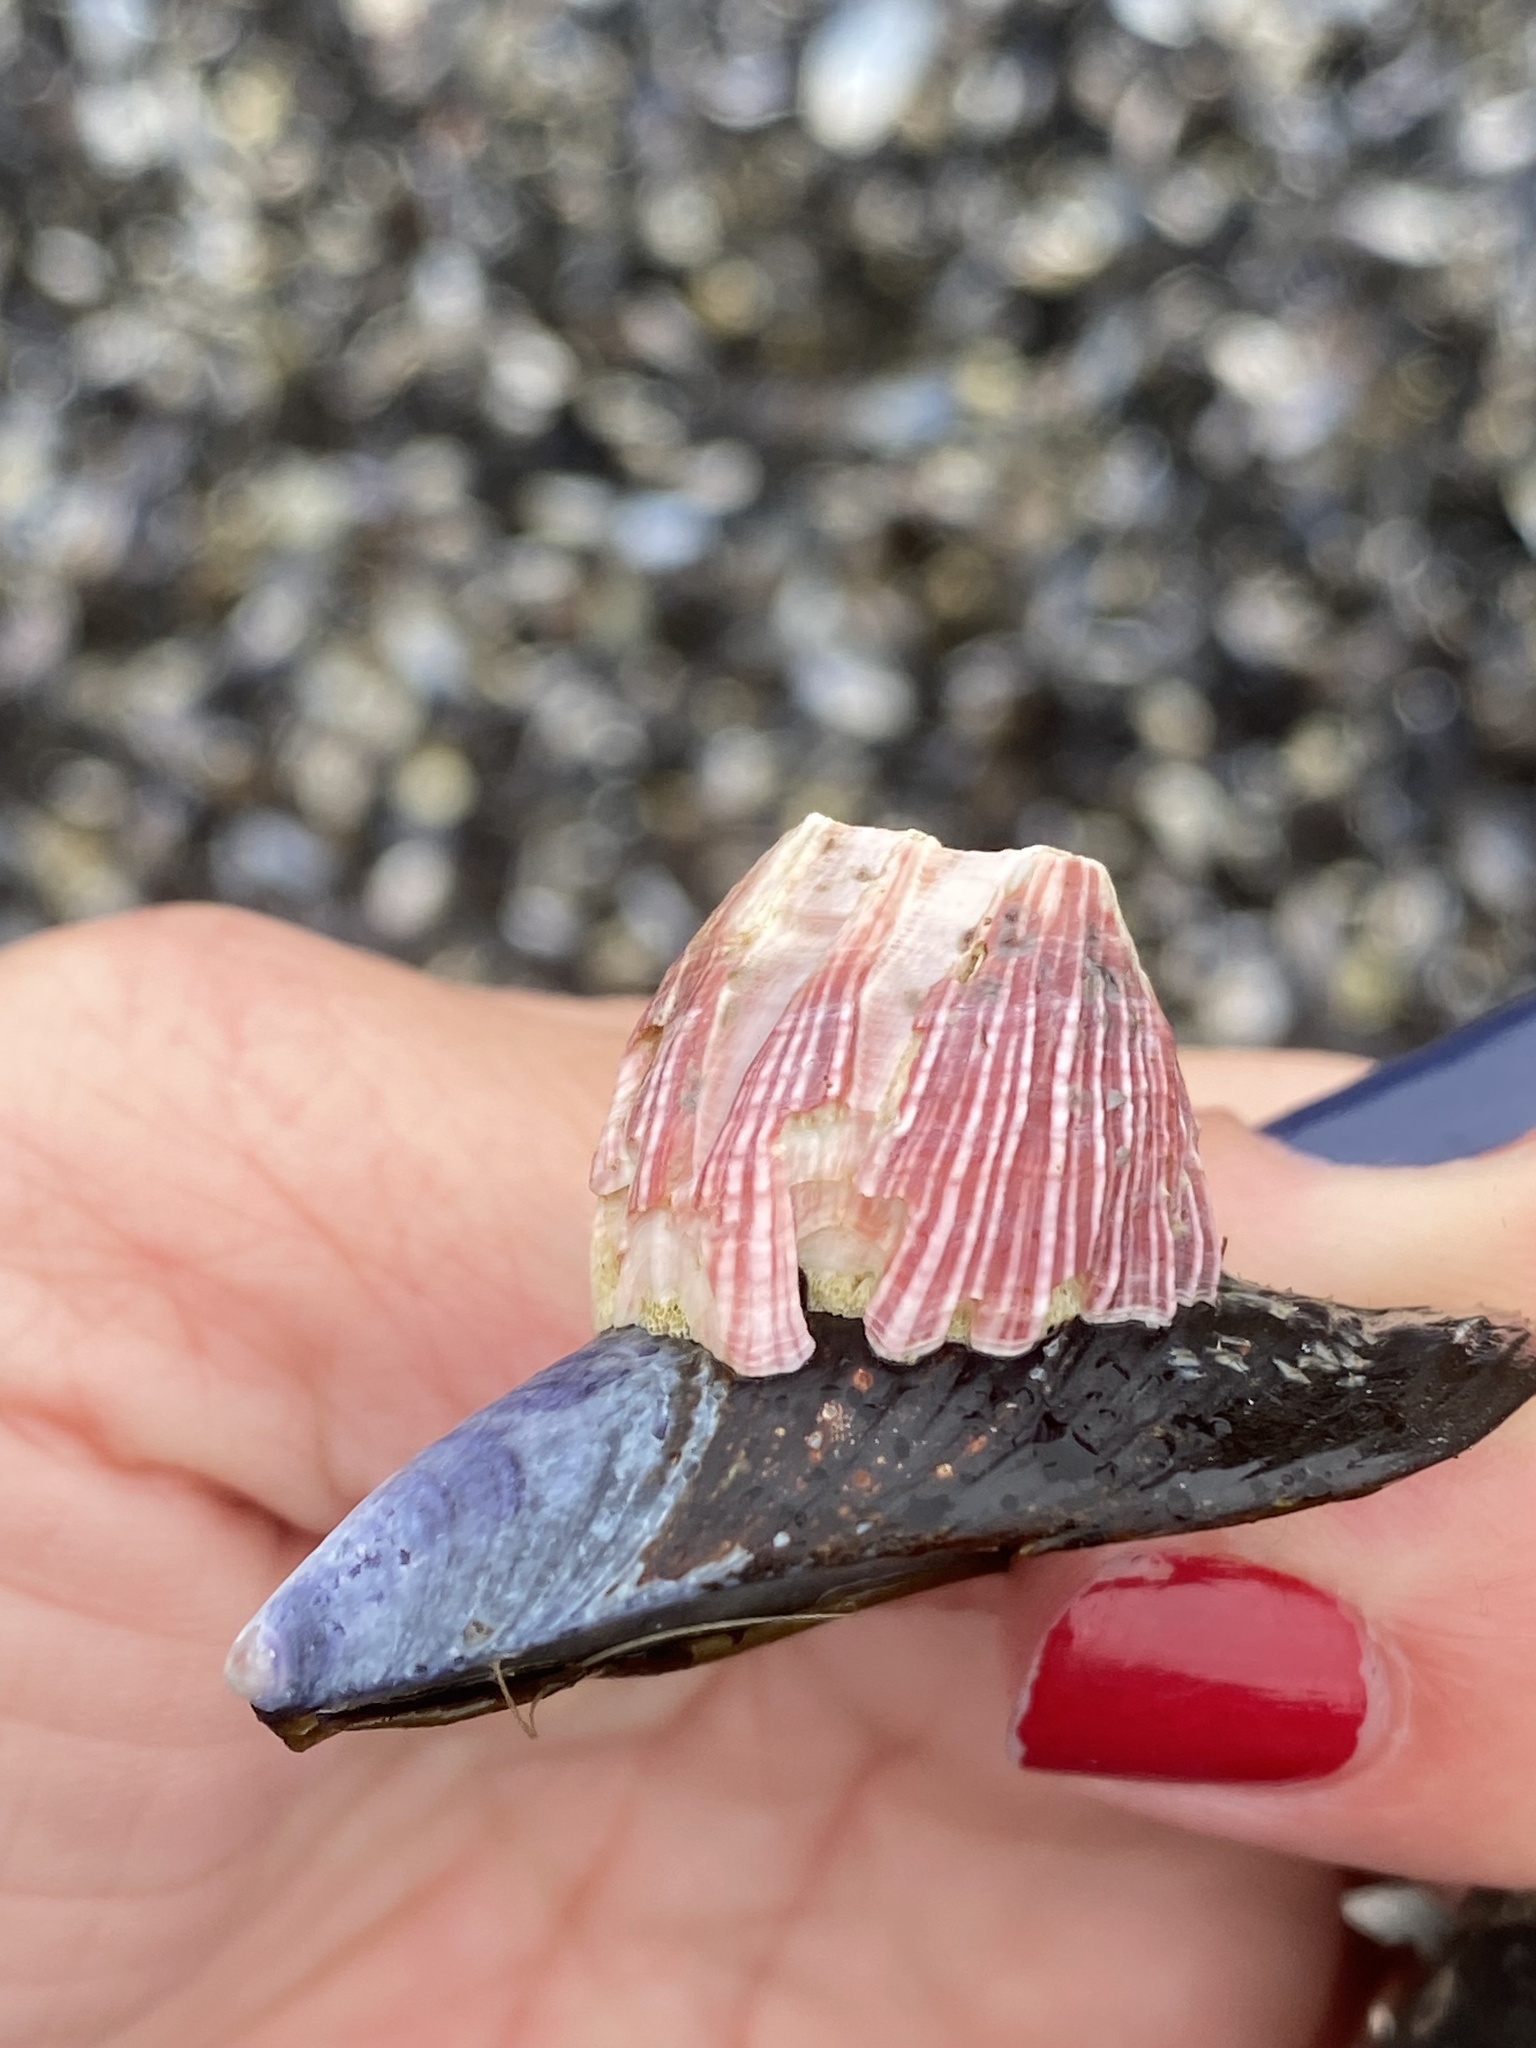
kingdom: Animalia
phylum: Arthropoda
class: Maxillopoda
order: Sessilia
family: Balanidae
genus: Megabalanus
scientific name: Megabalanus californicus
